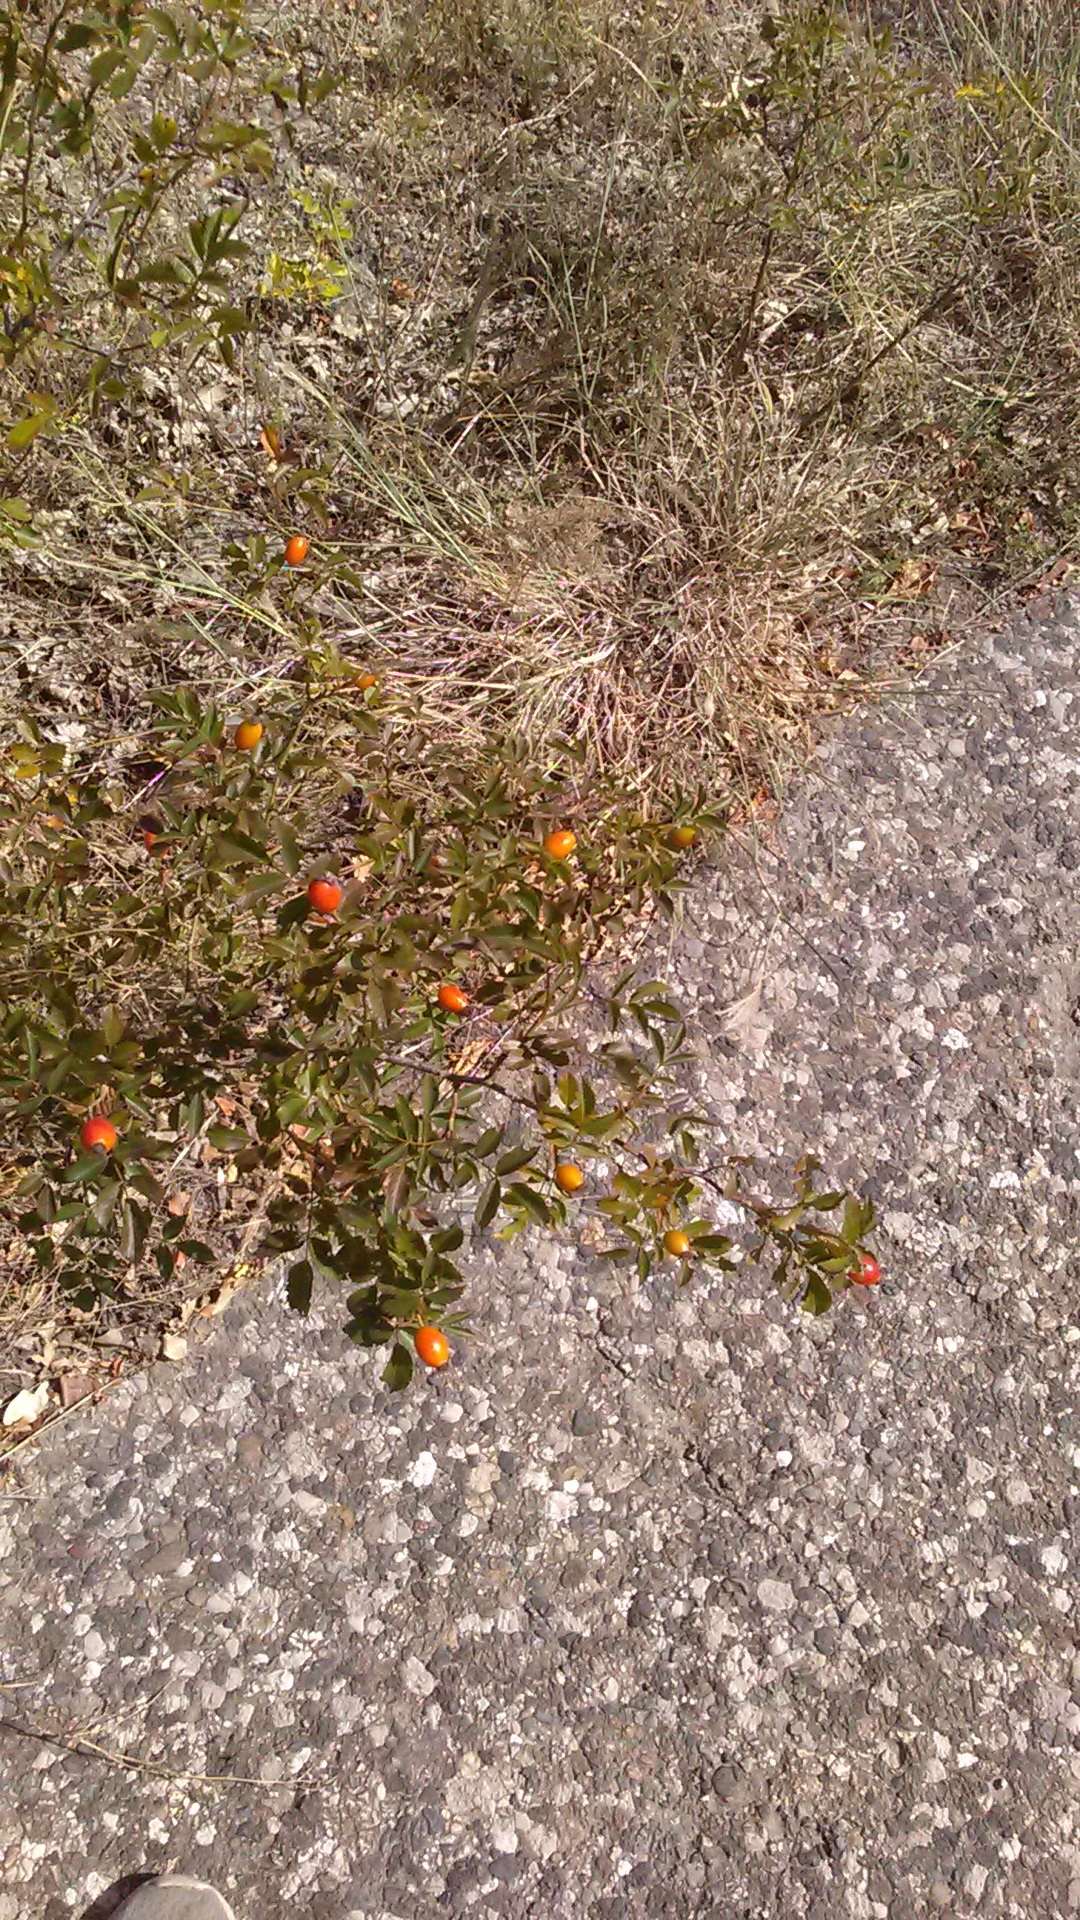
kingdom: Plantae
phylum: Tracheophyta
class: Magnoliopsida
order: Rosales
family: Rosaceae
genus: Rosa
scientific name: Rosa
